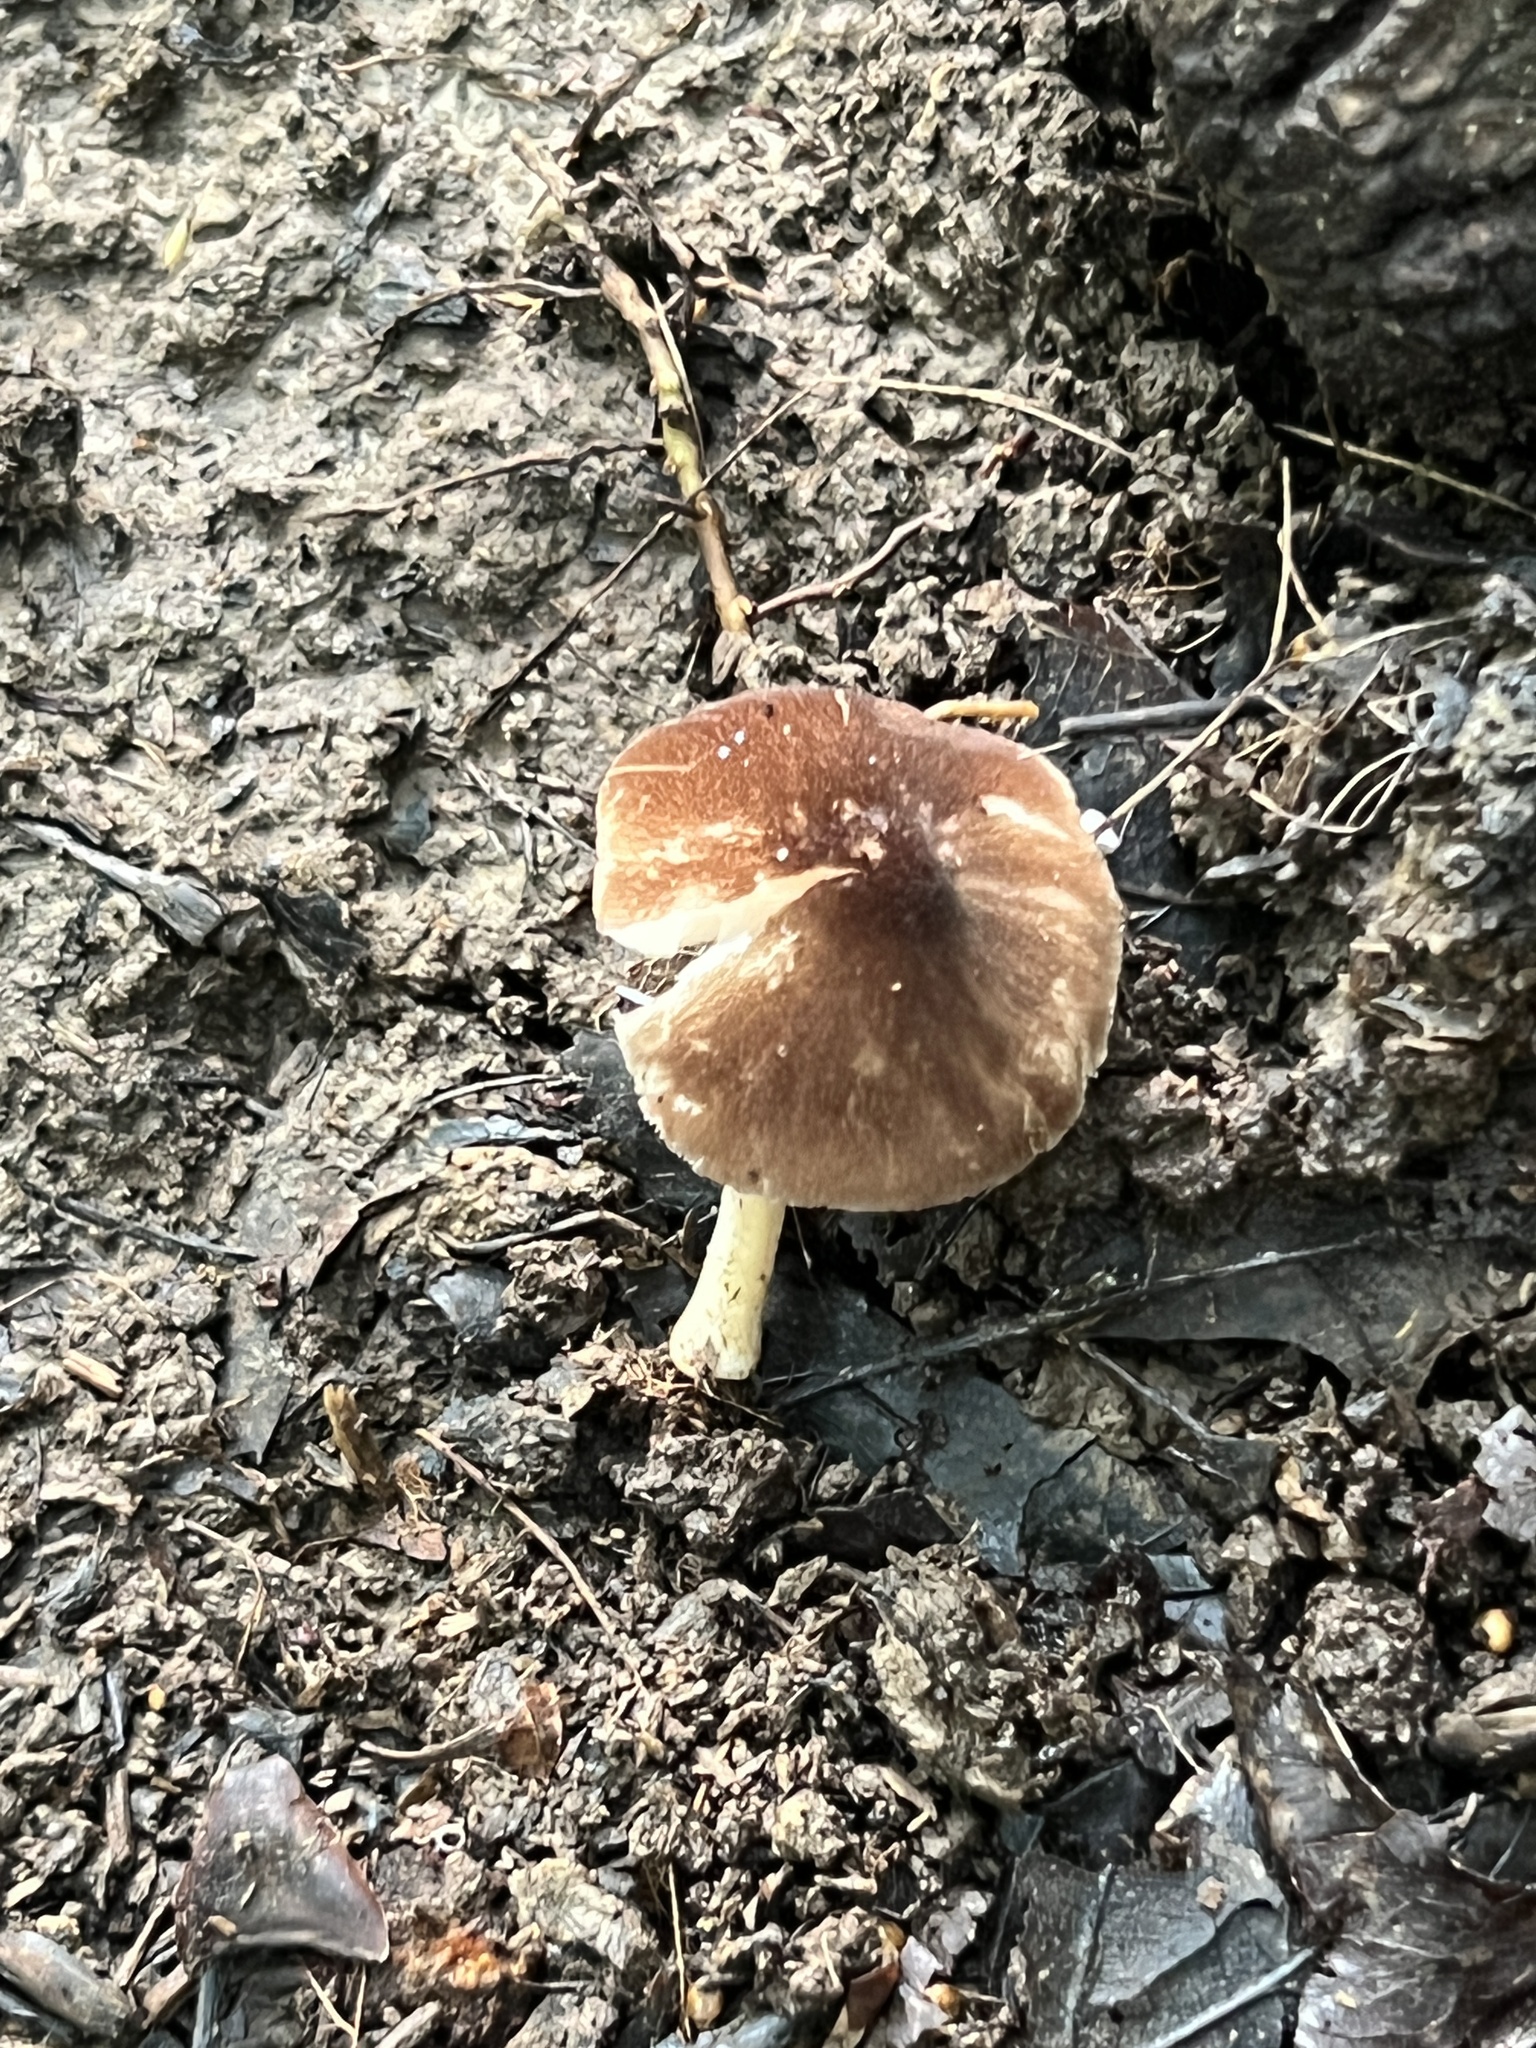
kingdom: Fungi
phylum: Basidiomycota
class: Agaricomycetes
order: Agaricales
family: Pluteaceae
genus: Pluteus
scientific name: Pluteus
